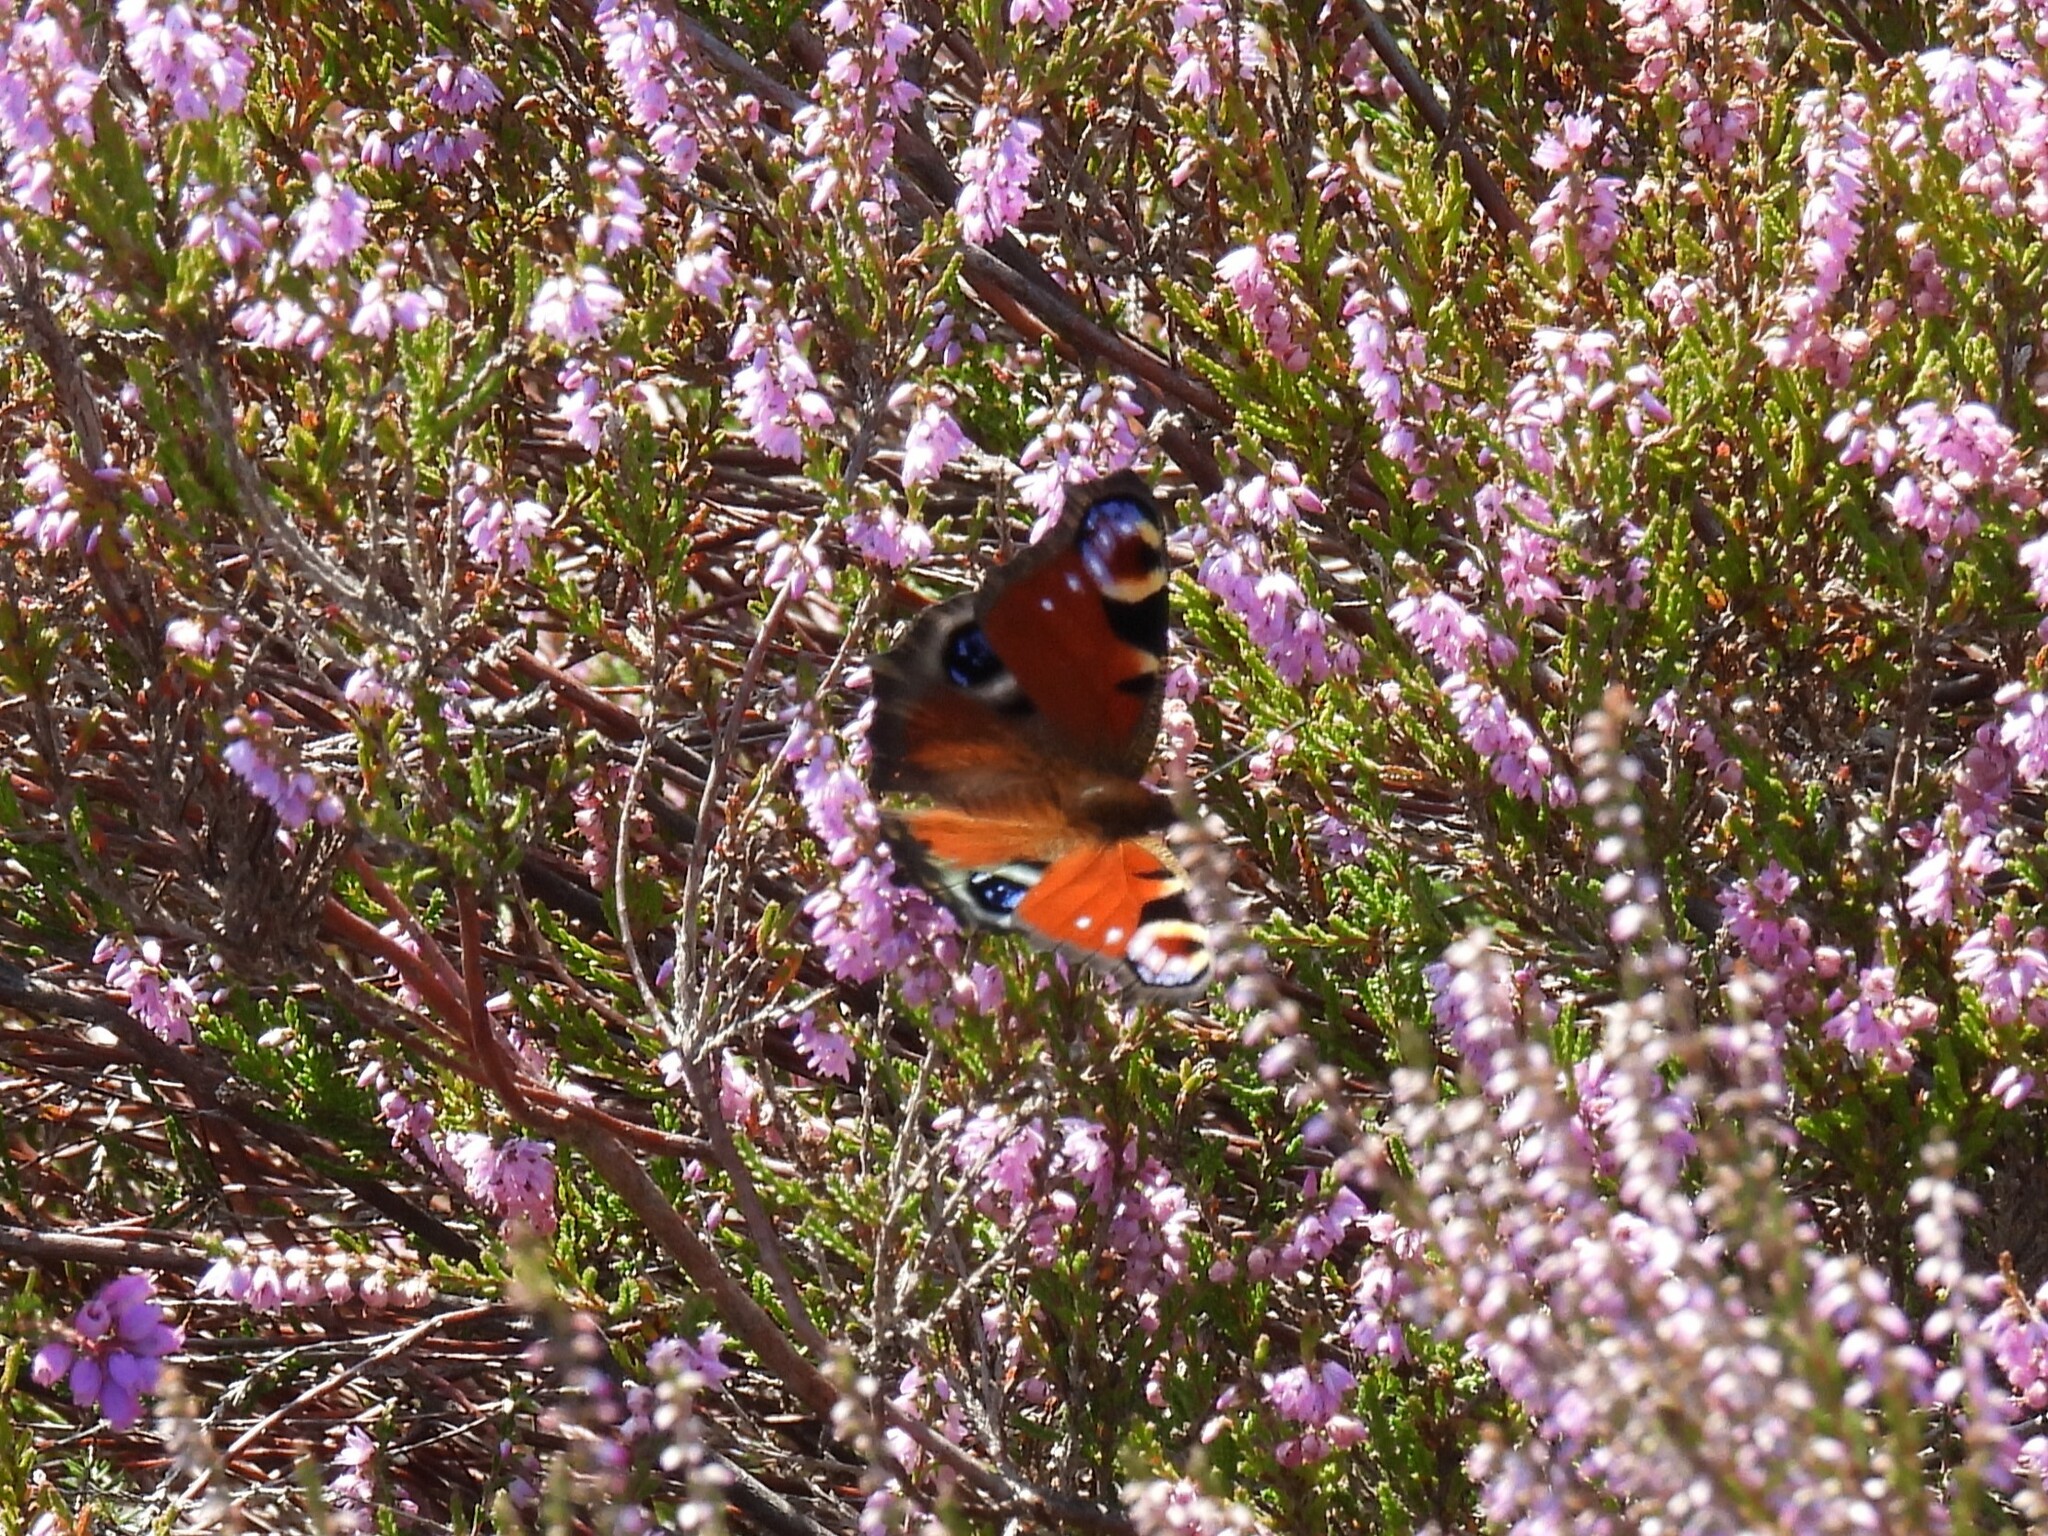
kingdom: Animalia
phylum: Arthropoda
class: Insecta
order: Lepidoptera
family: Nymphalidae
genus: Aglais
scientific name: Aglais io
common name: Peacock
